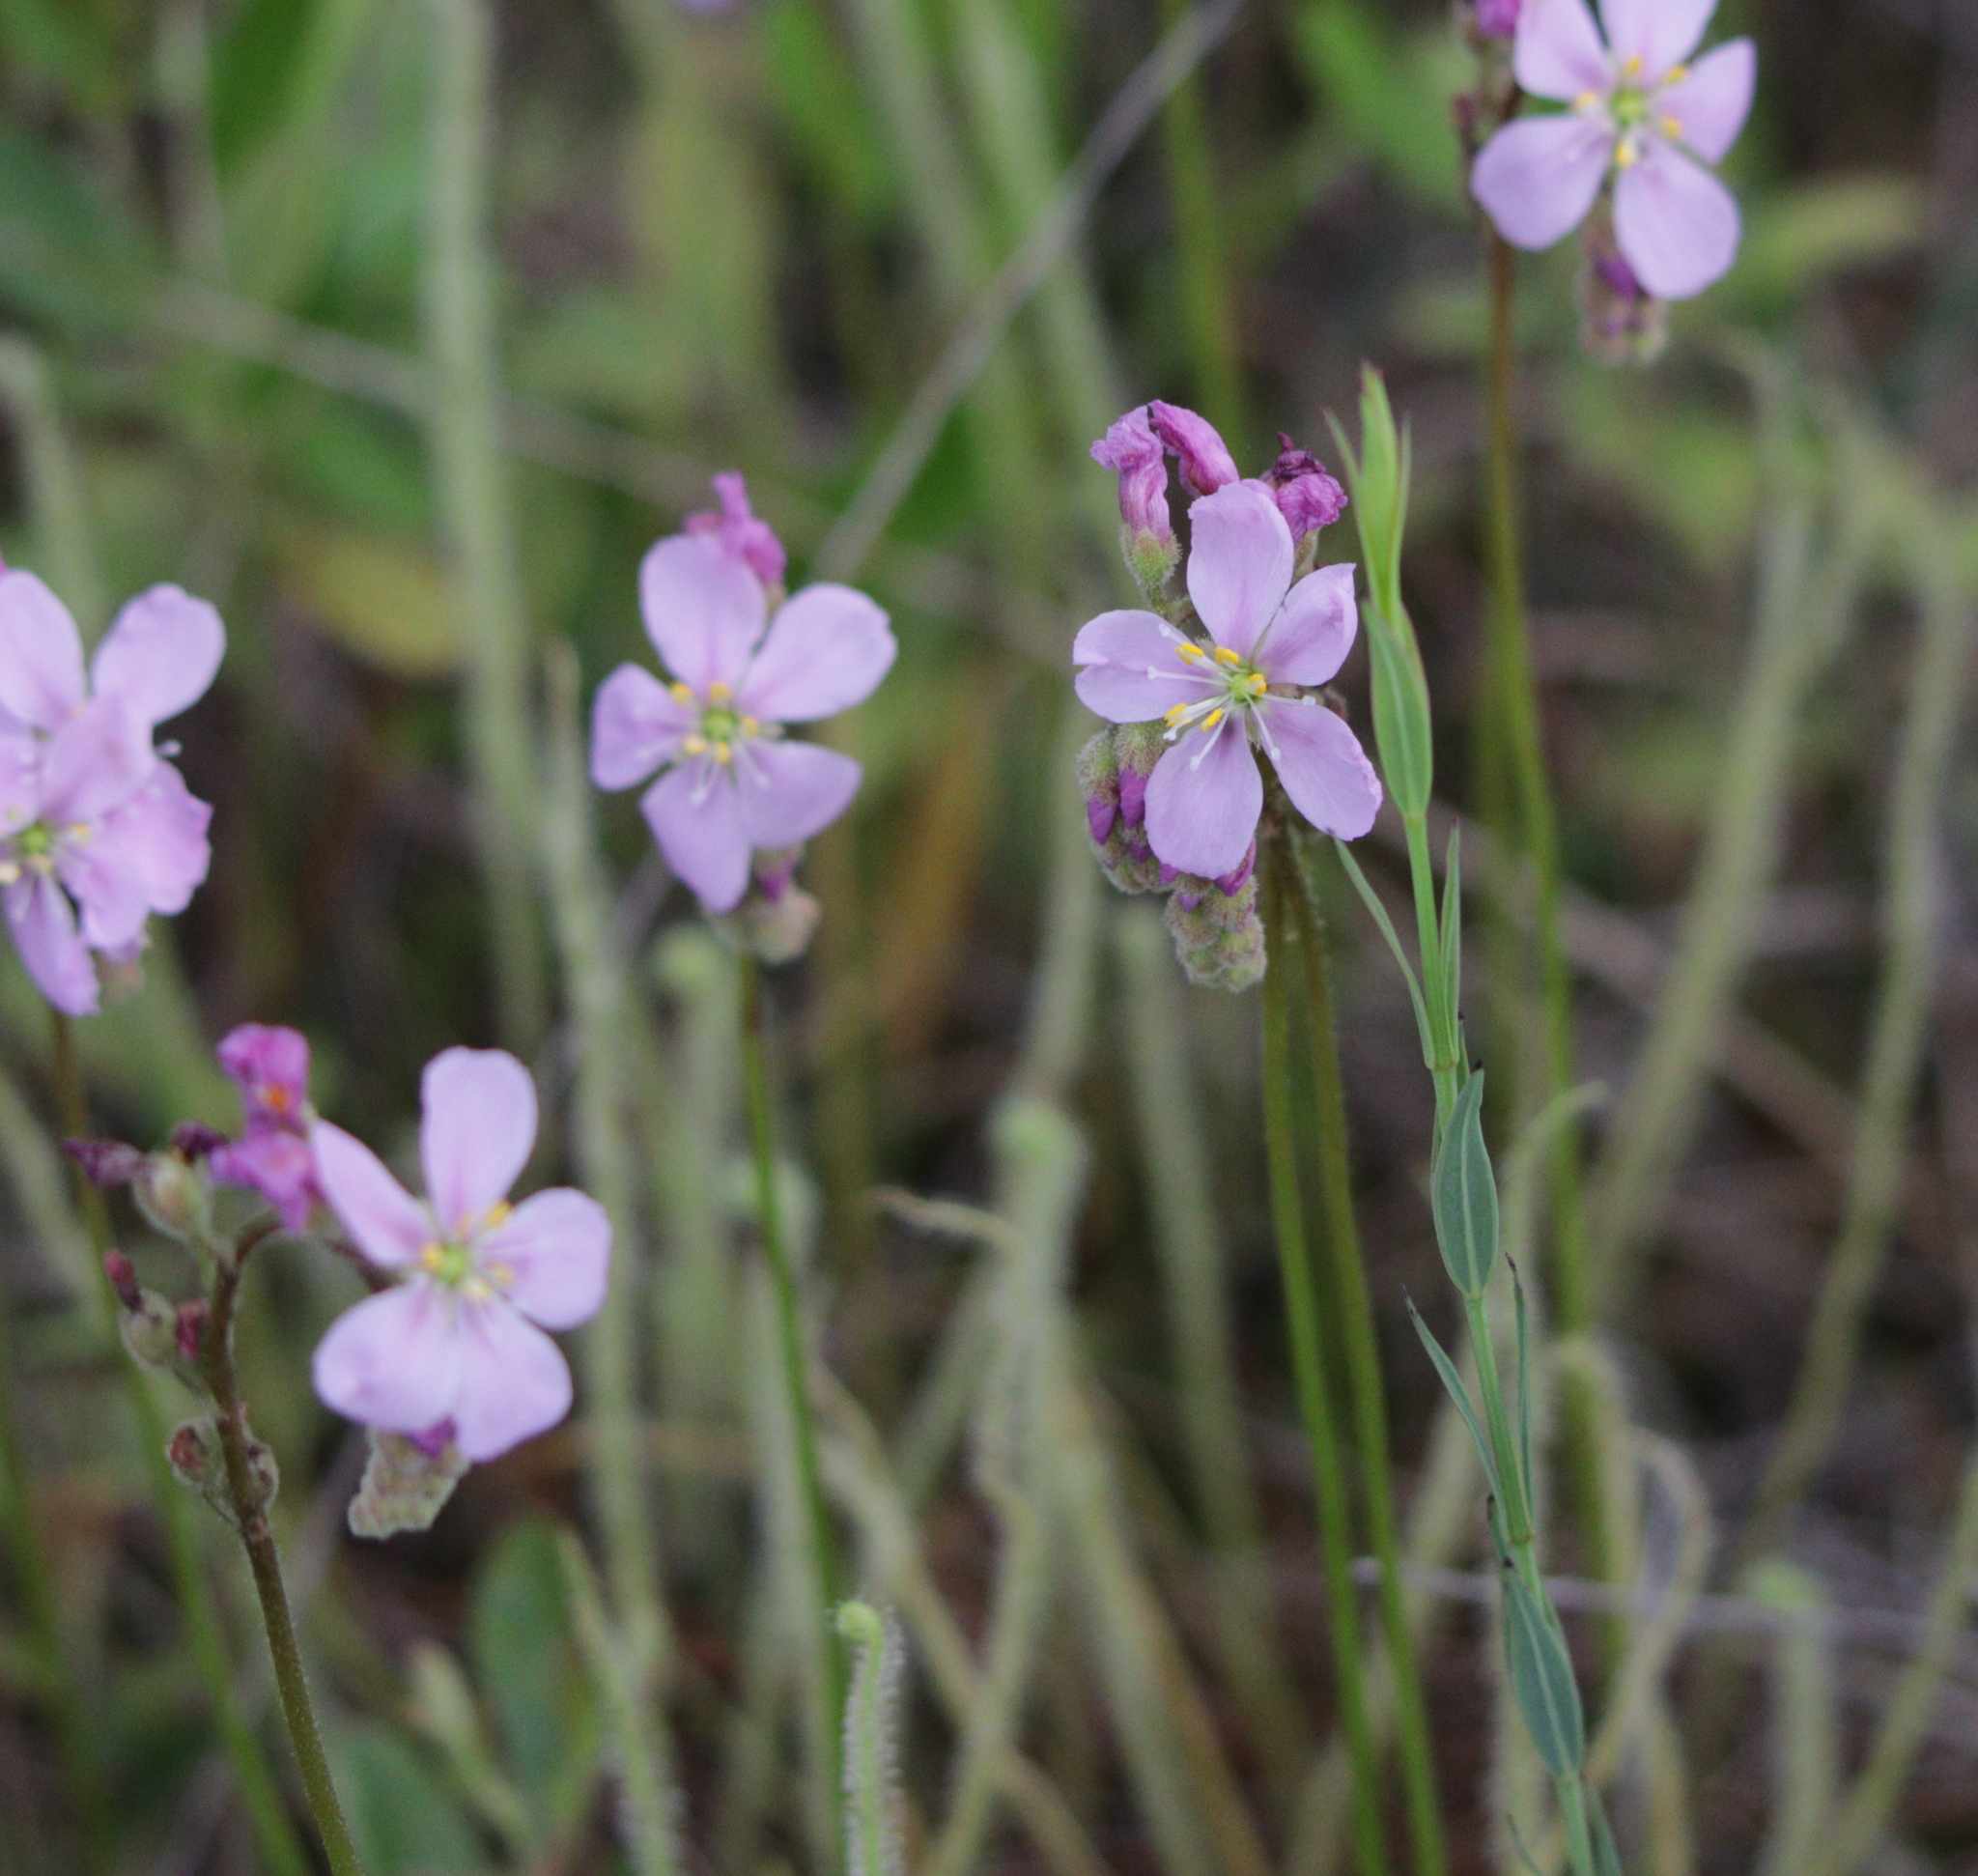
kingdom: Plantae
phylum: Tracheophyta
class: Magnoliopsida
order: Caryophyllales
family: Droseraceae
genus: Drosera
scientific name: Drosera filiformis
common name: Dew-thread
